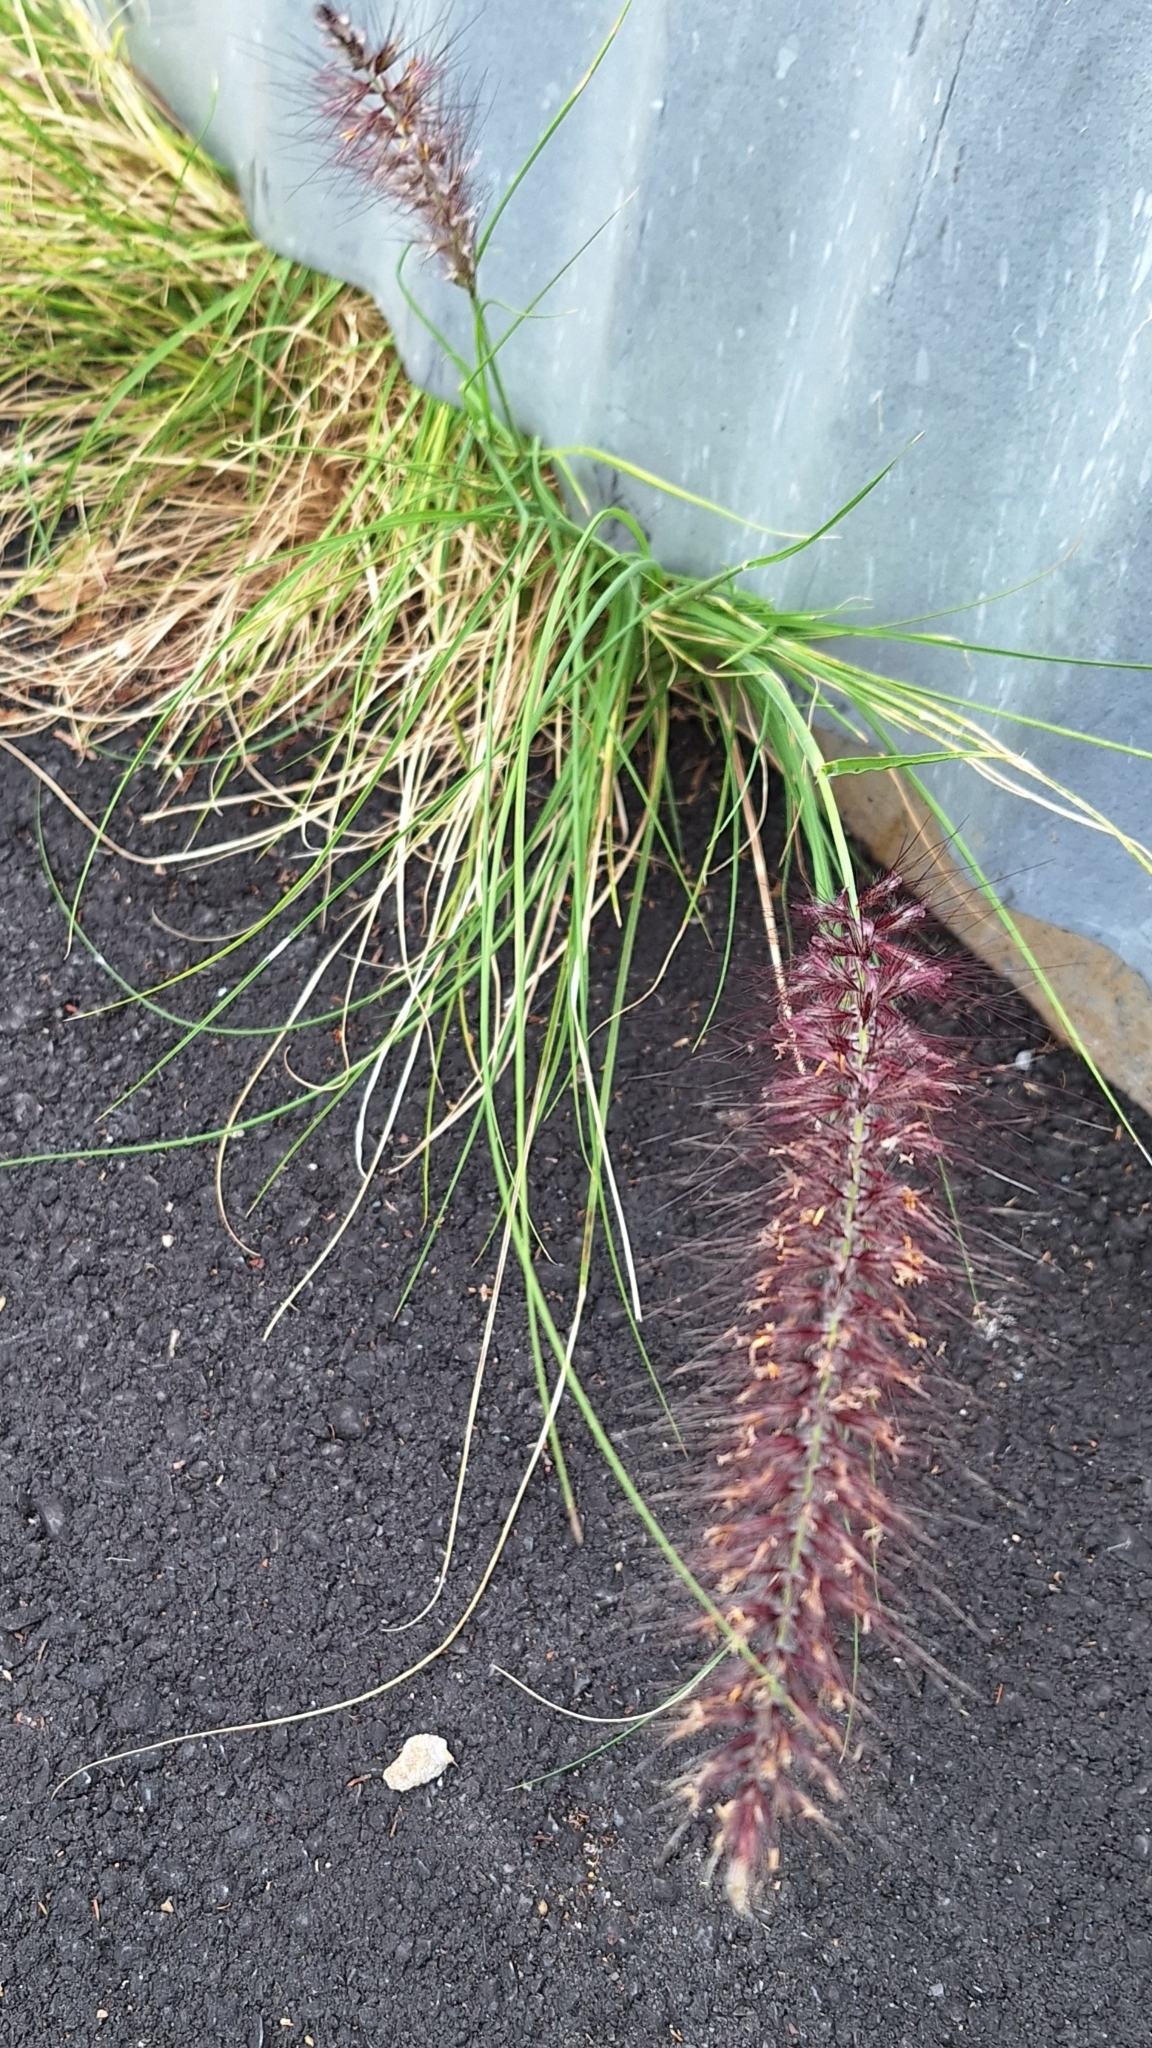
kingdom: Plantae
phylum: Tracheophyta
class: Liliopsida
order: Poales
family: Poaceae
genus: Cenchrus
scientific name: Cenchrus setaceus
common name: Crimson fountaingrass
